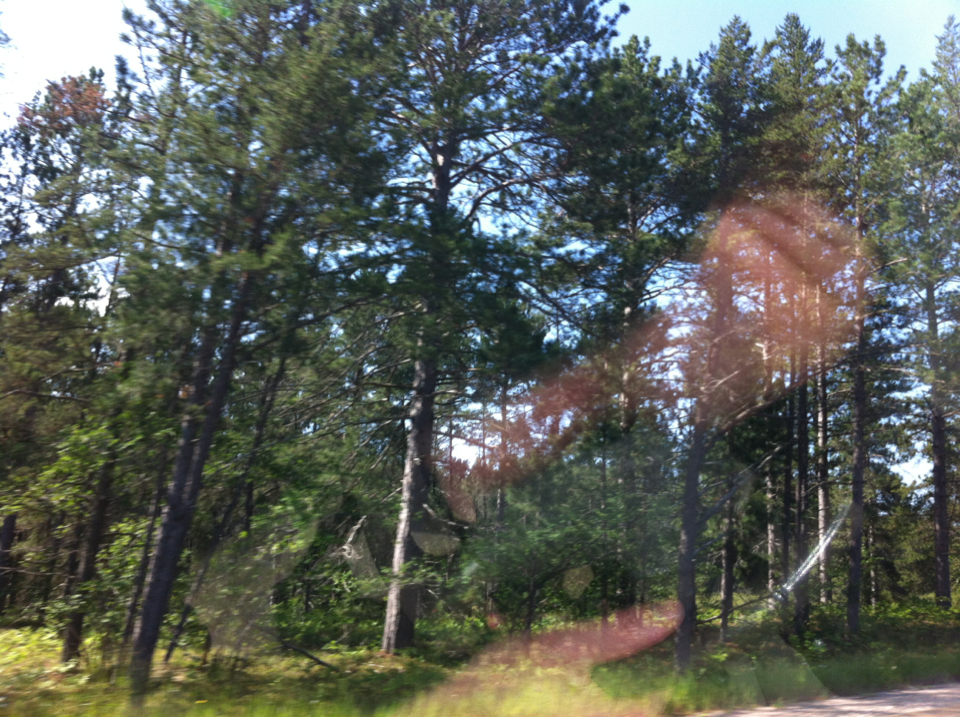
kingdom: Plantae
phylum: Tracheophyta
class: Pinopsida
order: Pinales
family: Pinaceae
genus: Pinus
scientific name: Pinus banksiana
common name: Jack pine
